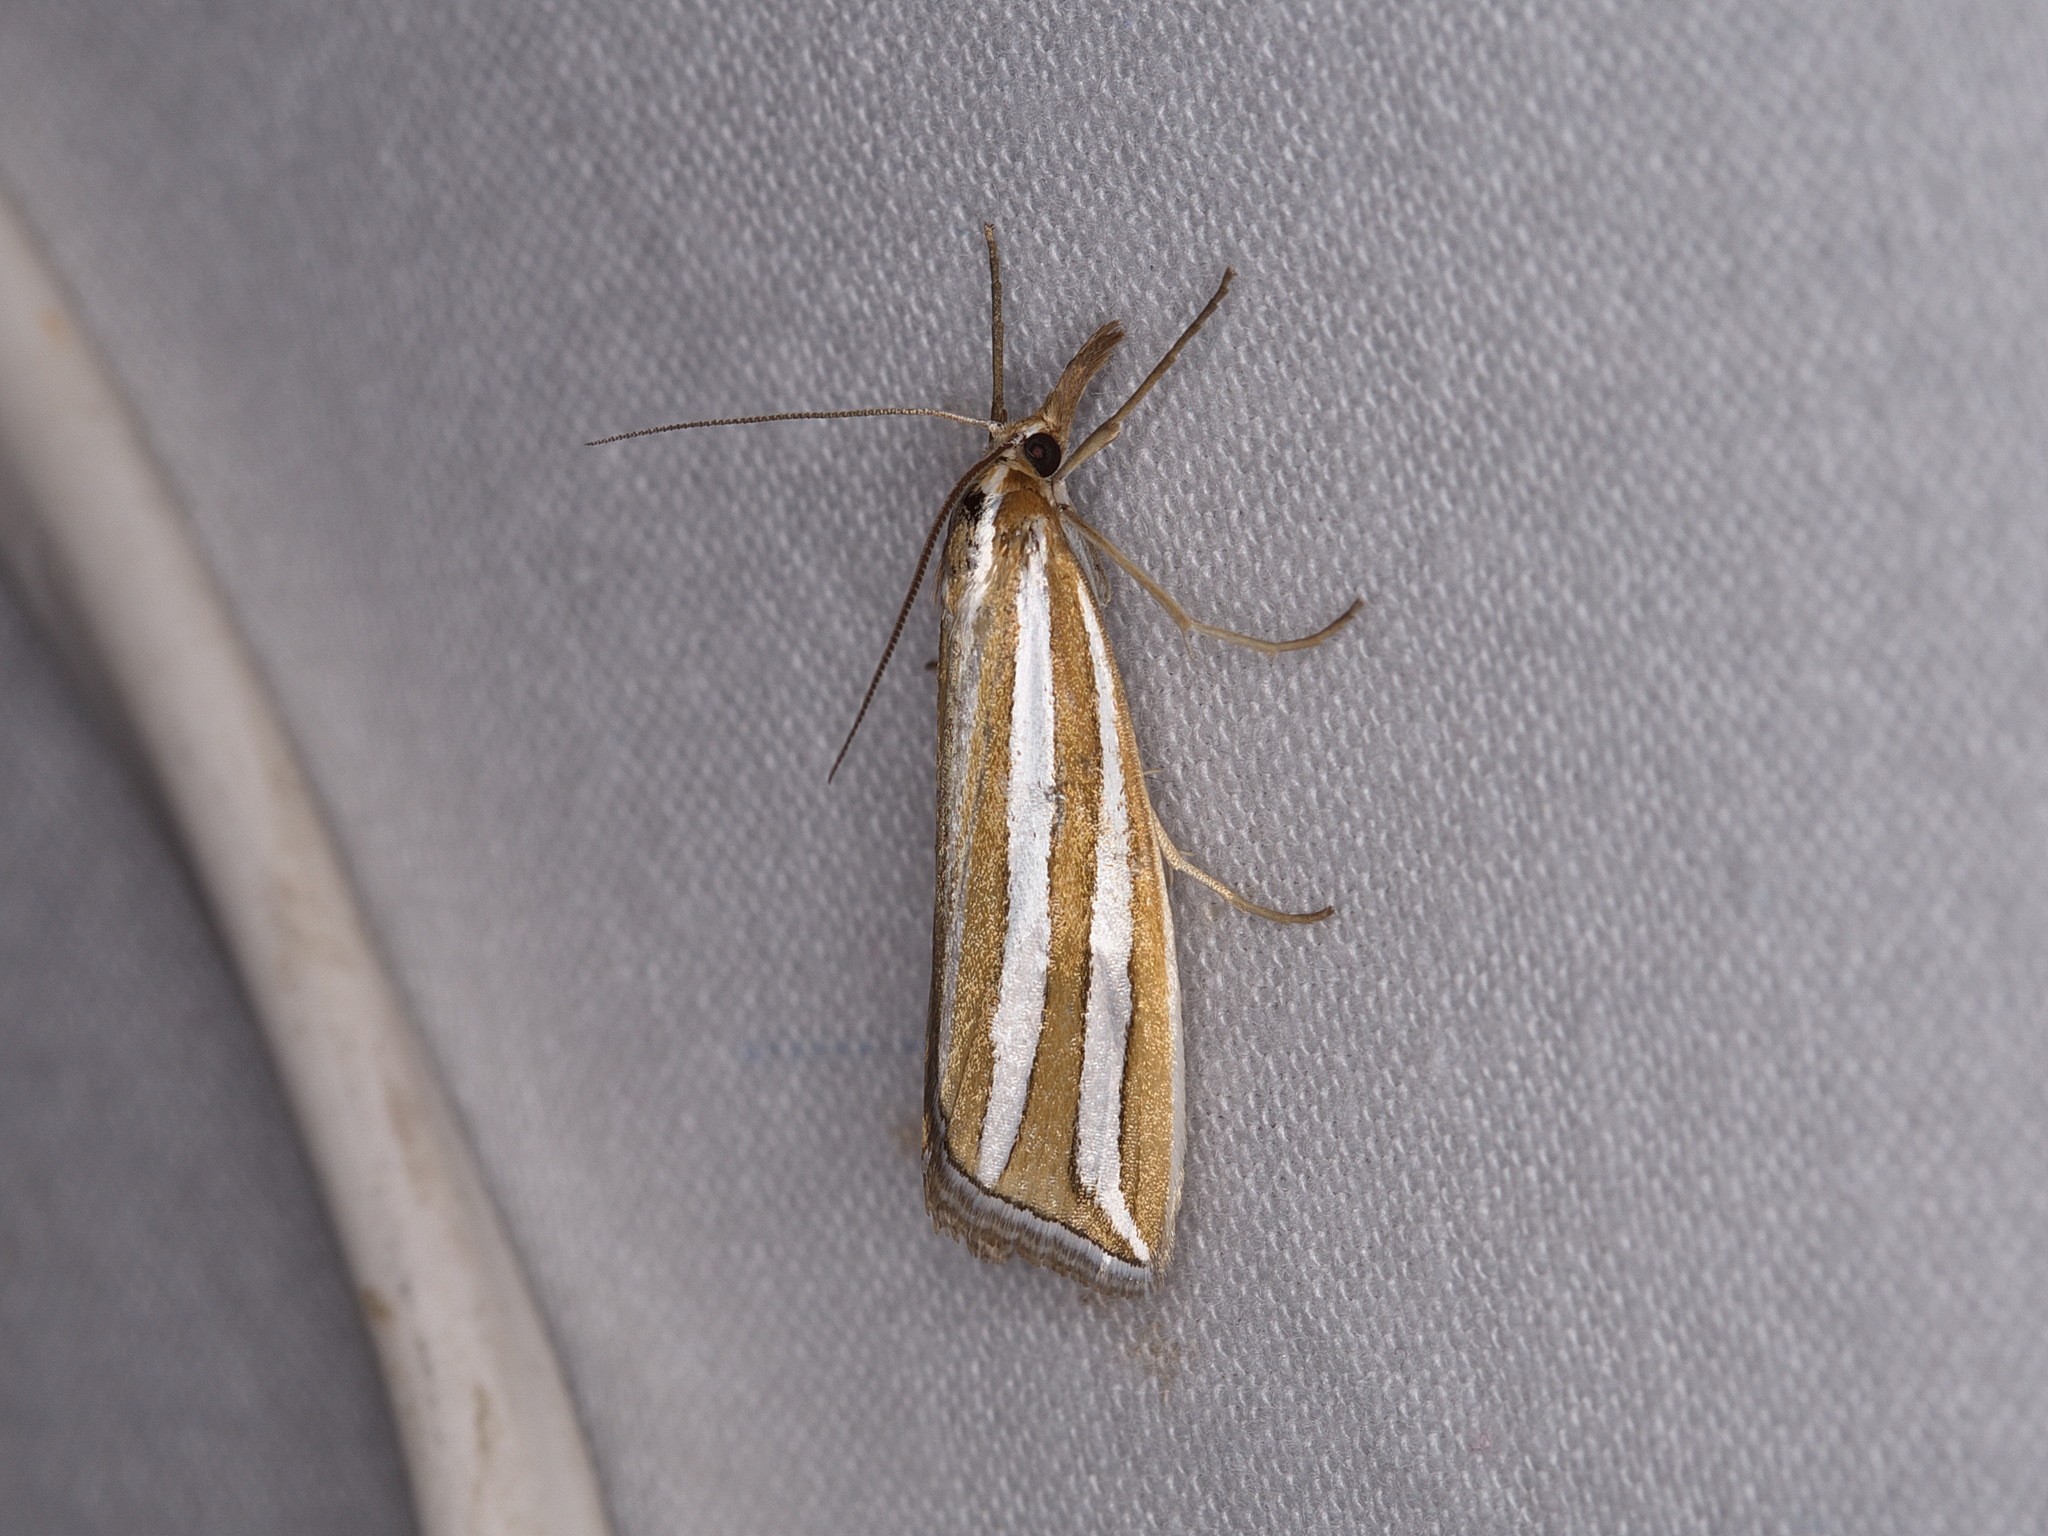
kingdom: Animalia
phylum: Arthropoda
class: Insecta
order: Lepidoptera
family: Crambidae
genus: Hednota
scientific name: Hednota bivittella
